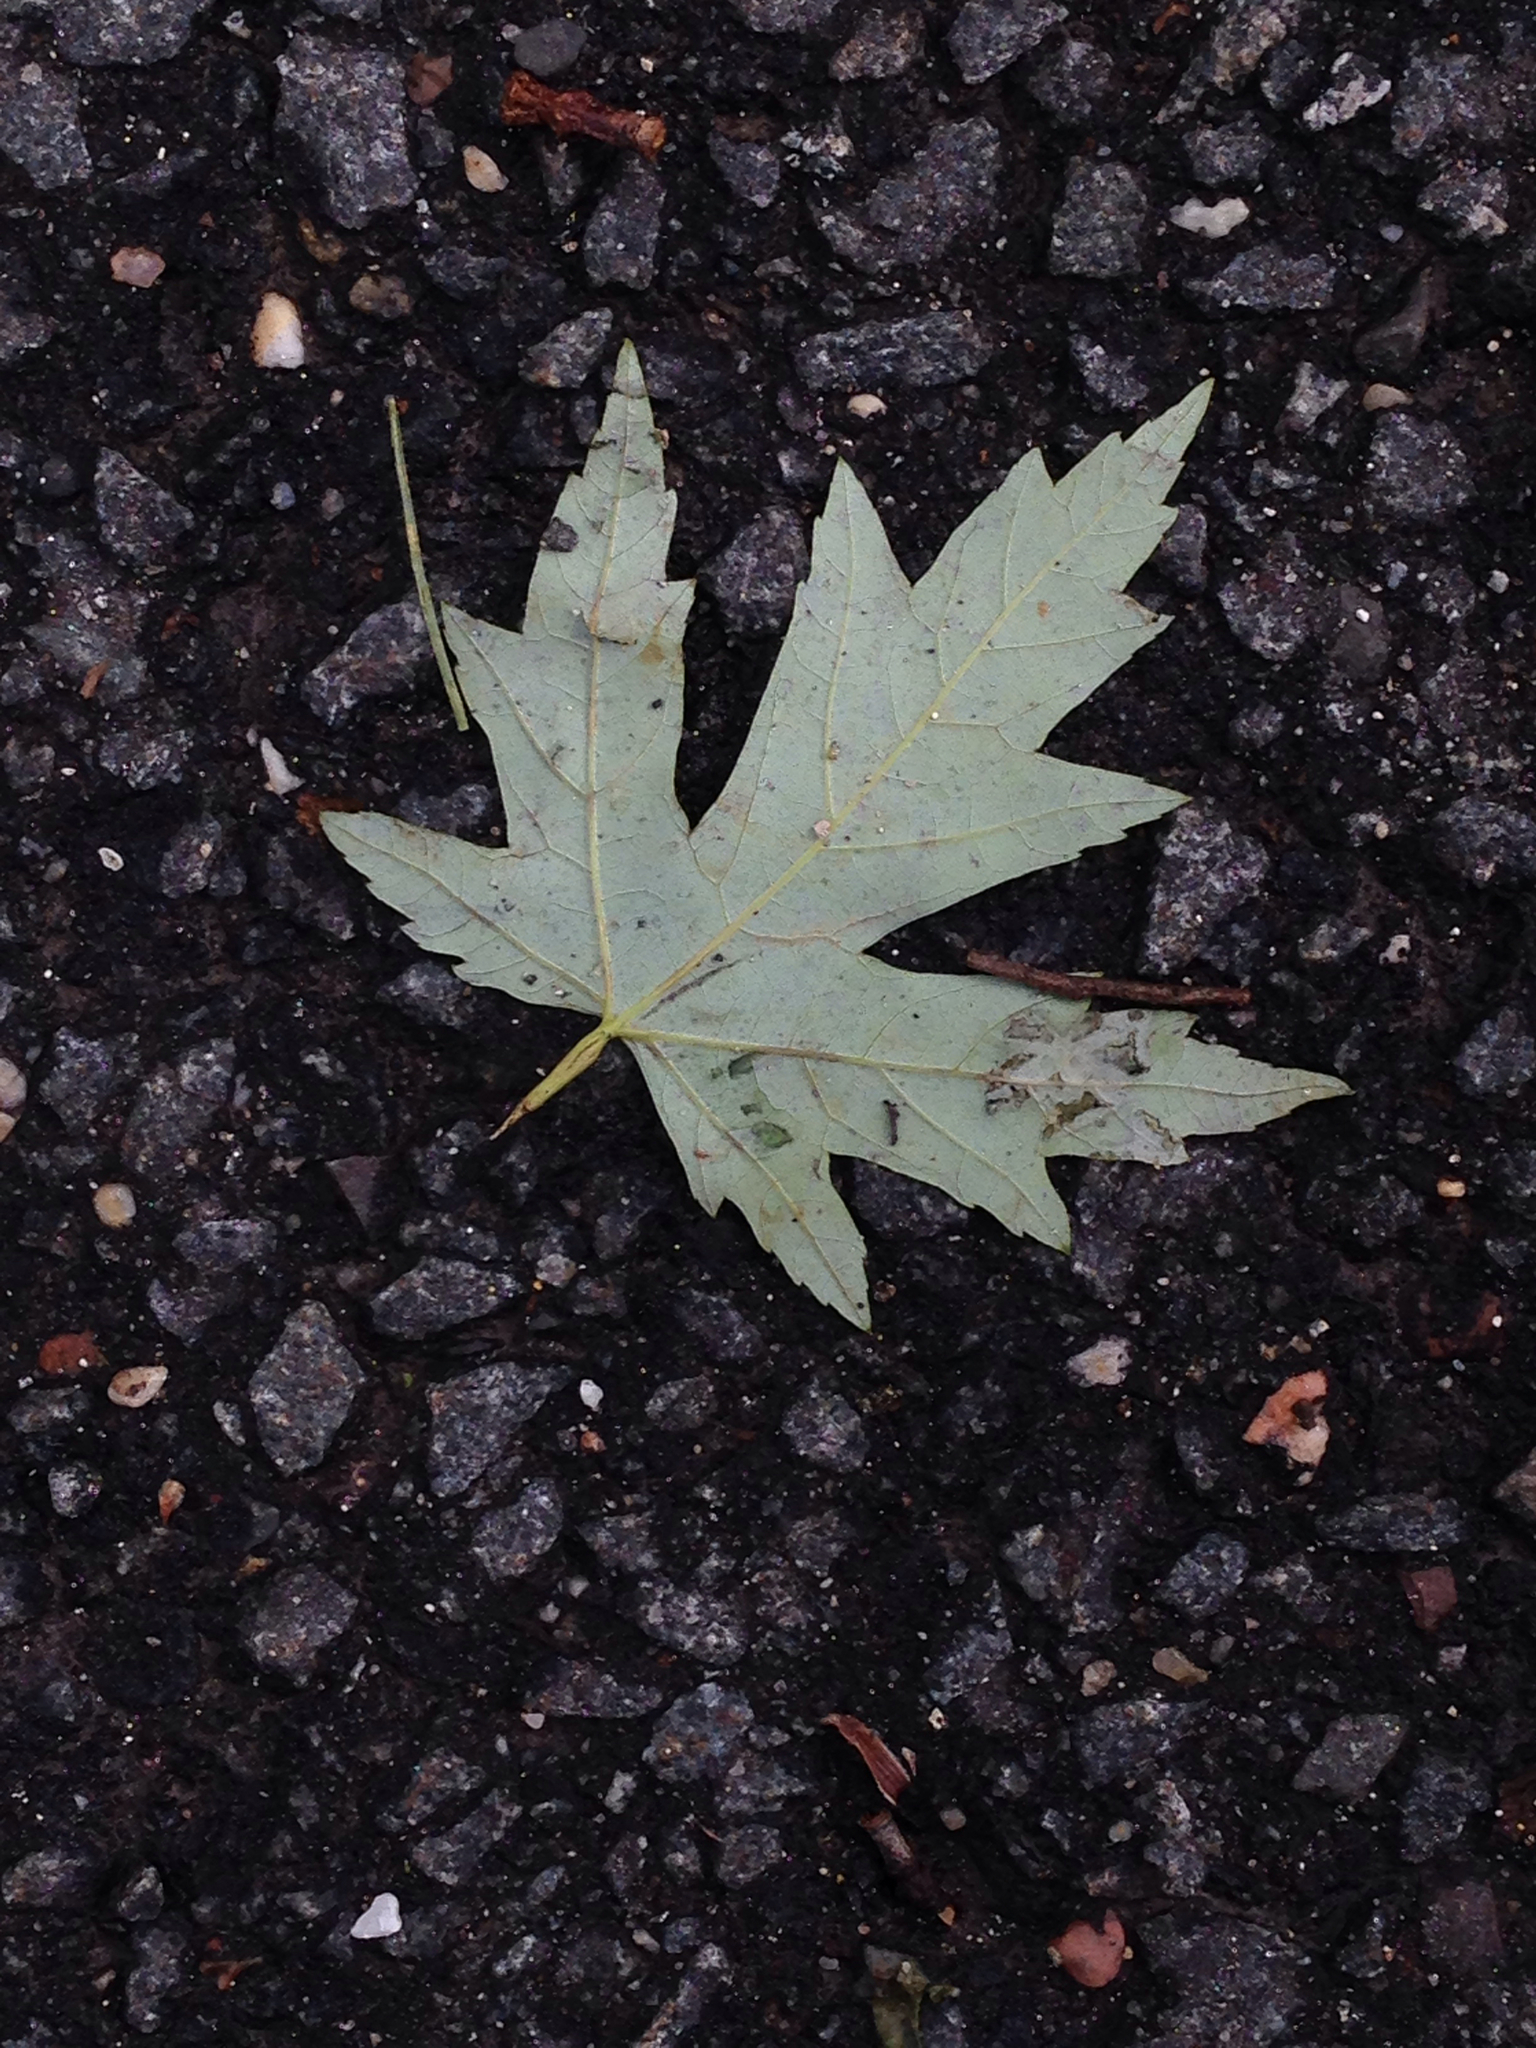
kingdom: Plantae
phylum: Tracheophyta
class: Magnoliopsida
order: Sapindales
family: Sapindaceae
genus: Acer
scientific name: Acer saccharinum
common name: Silver maple
